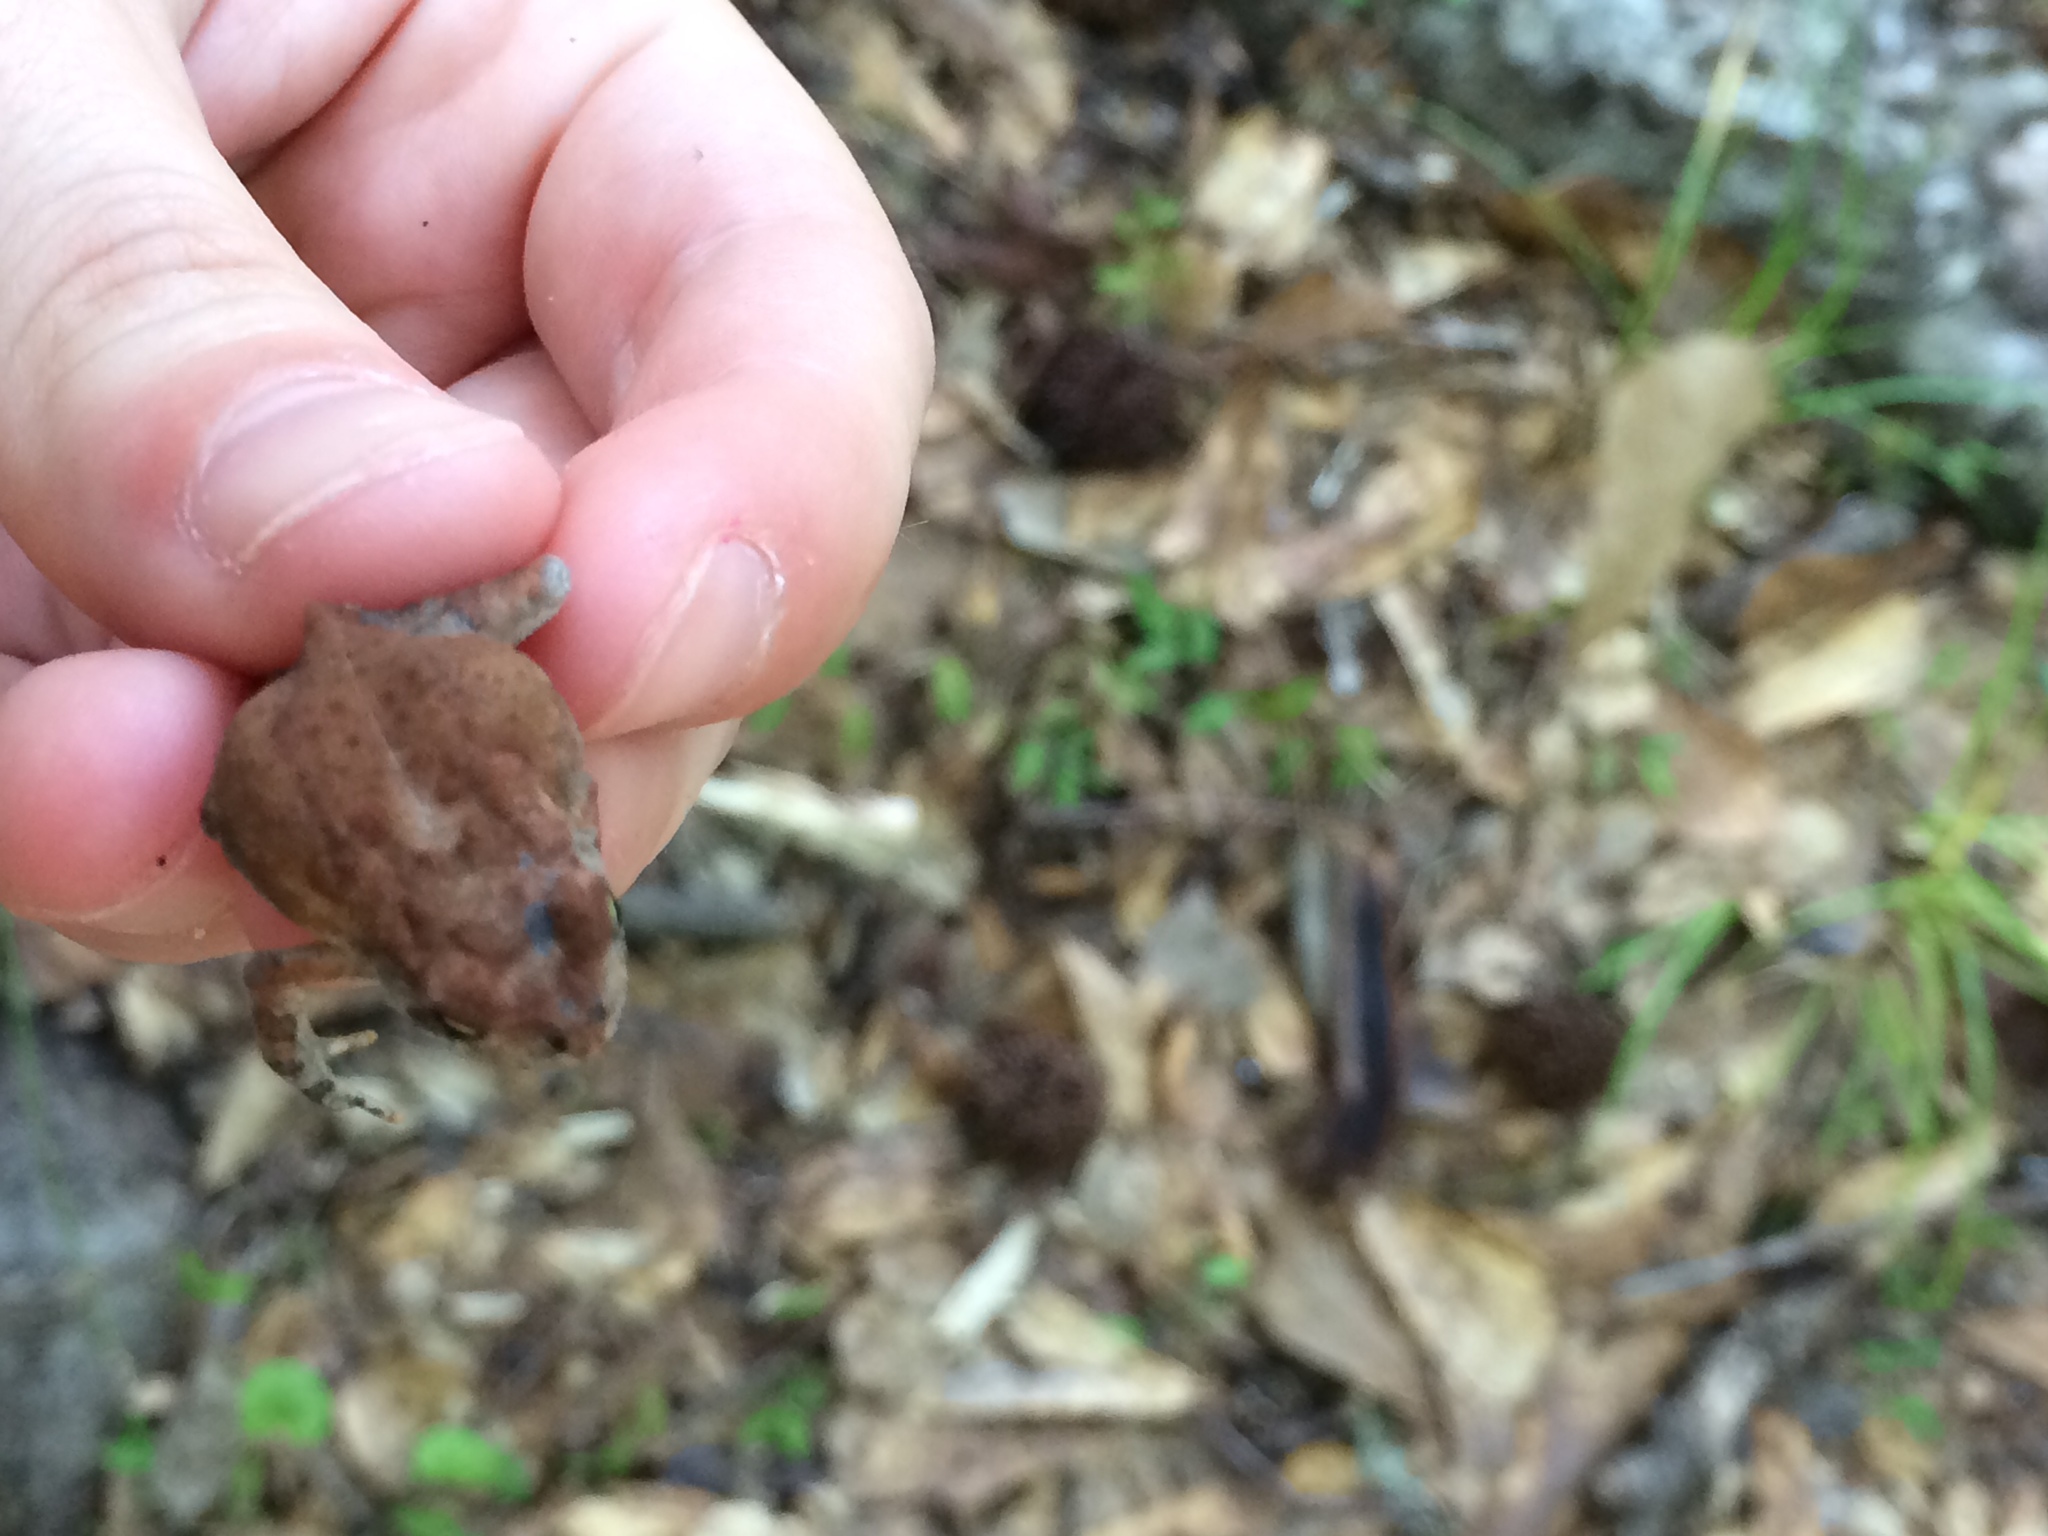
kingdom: Animalia
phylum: Chordata
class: Amphibia
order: Anura
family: Bufonidae
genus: Anaxyrus
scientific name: Anaxyrus terrestris
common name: Southern toad
